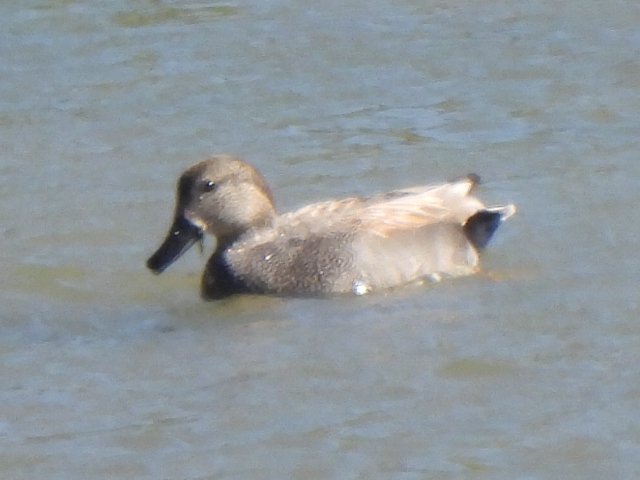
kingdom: Animalia
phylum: Chordata
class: Aves
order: Anseriformes
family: Anatidae
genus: Mareca
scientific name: Mareca strepera
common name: Gadwall
